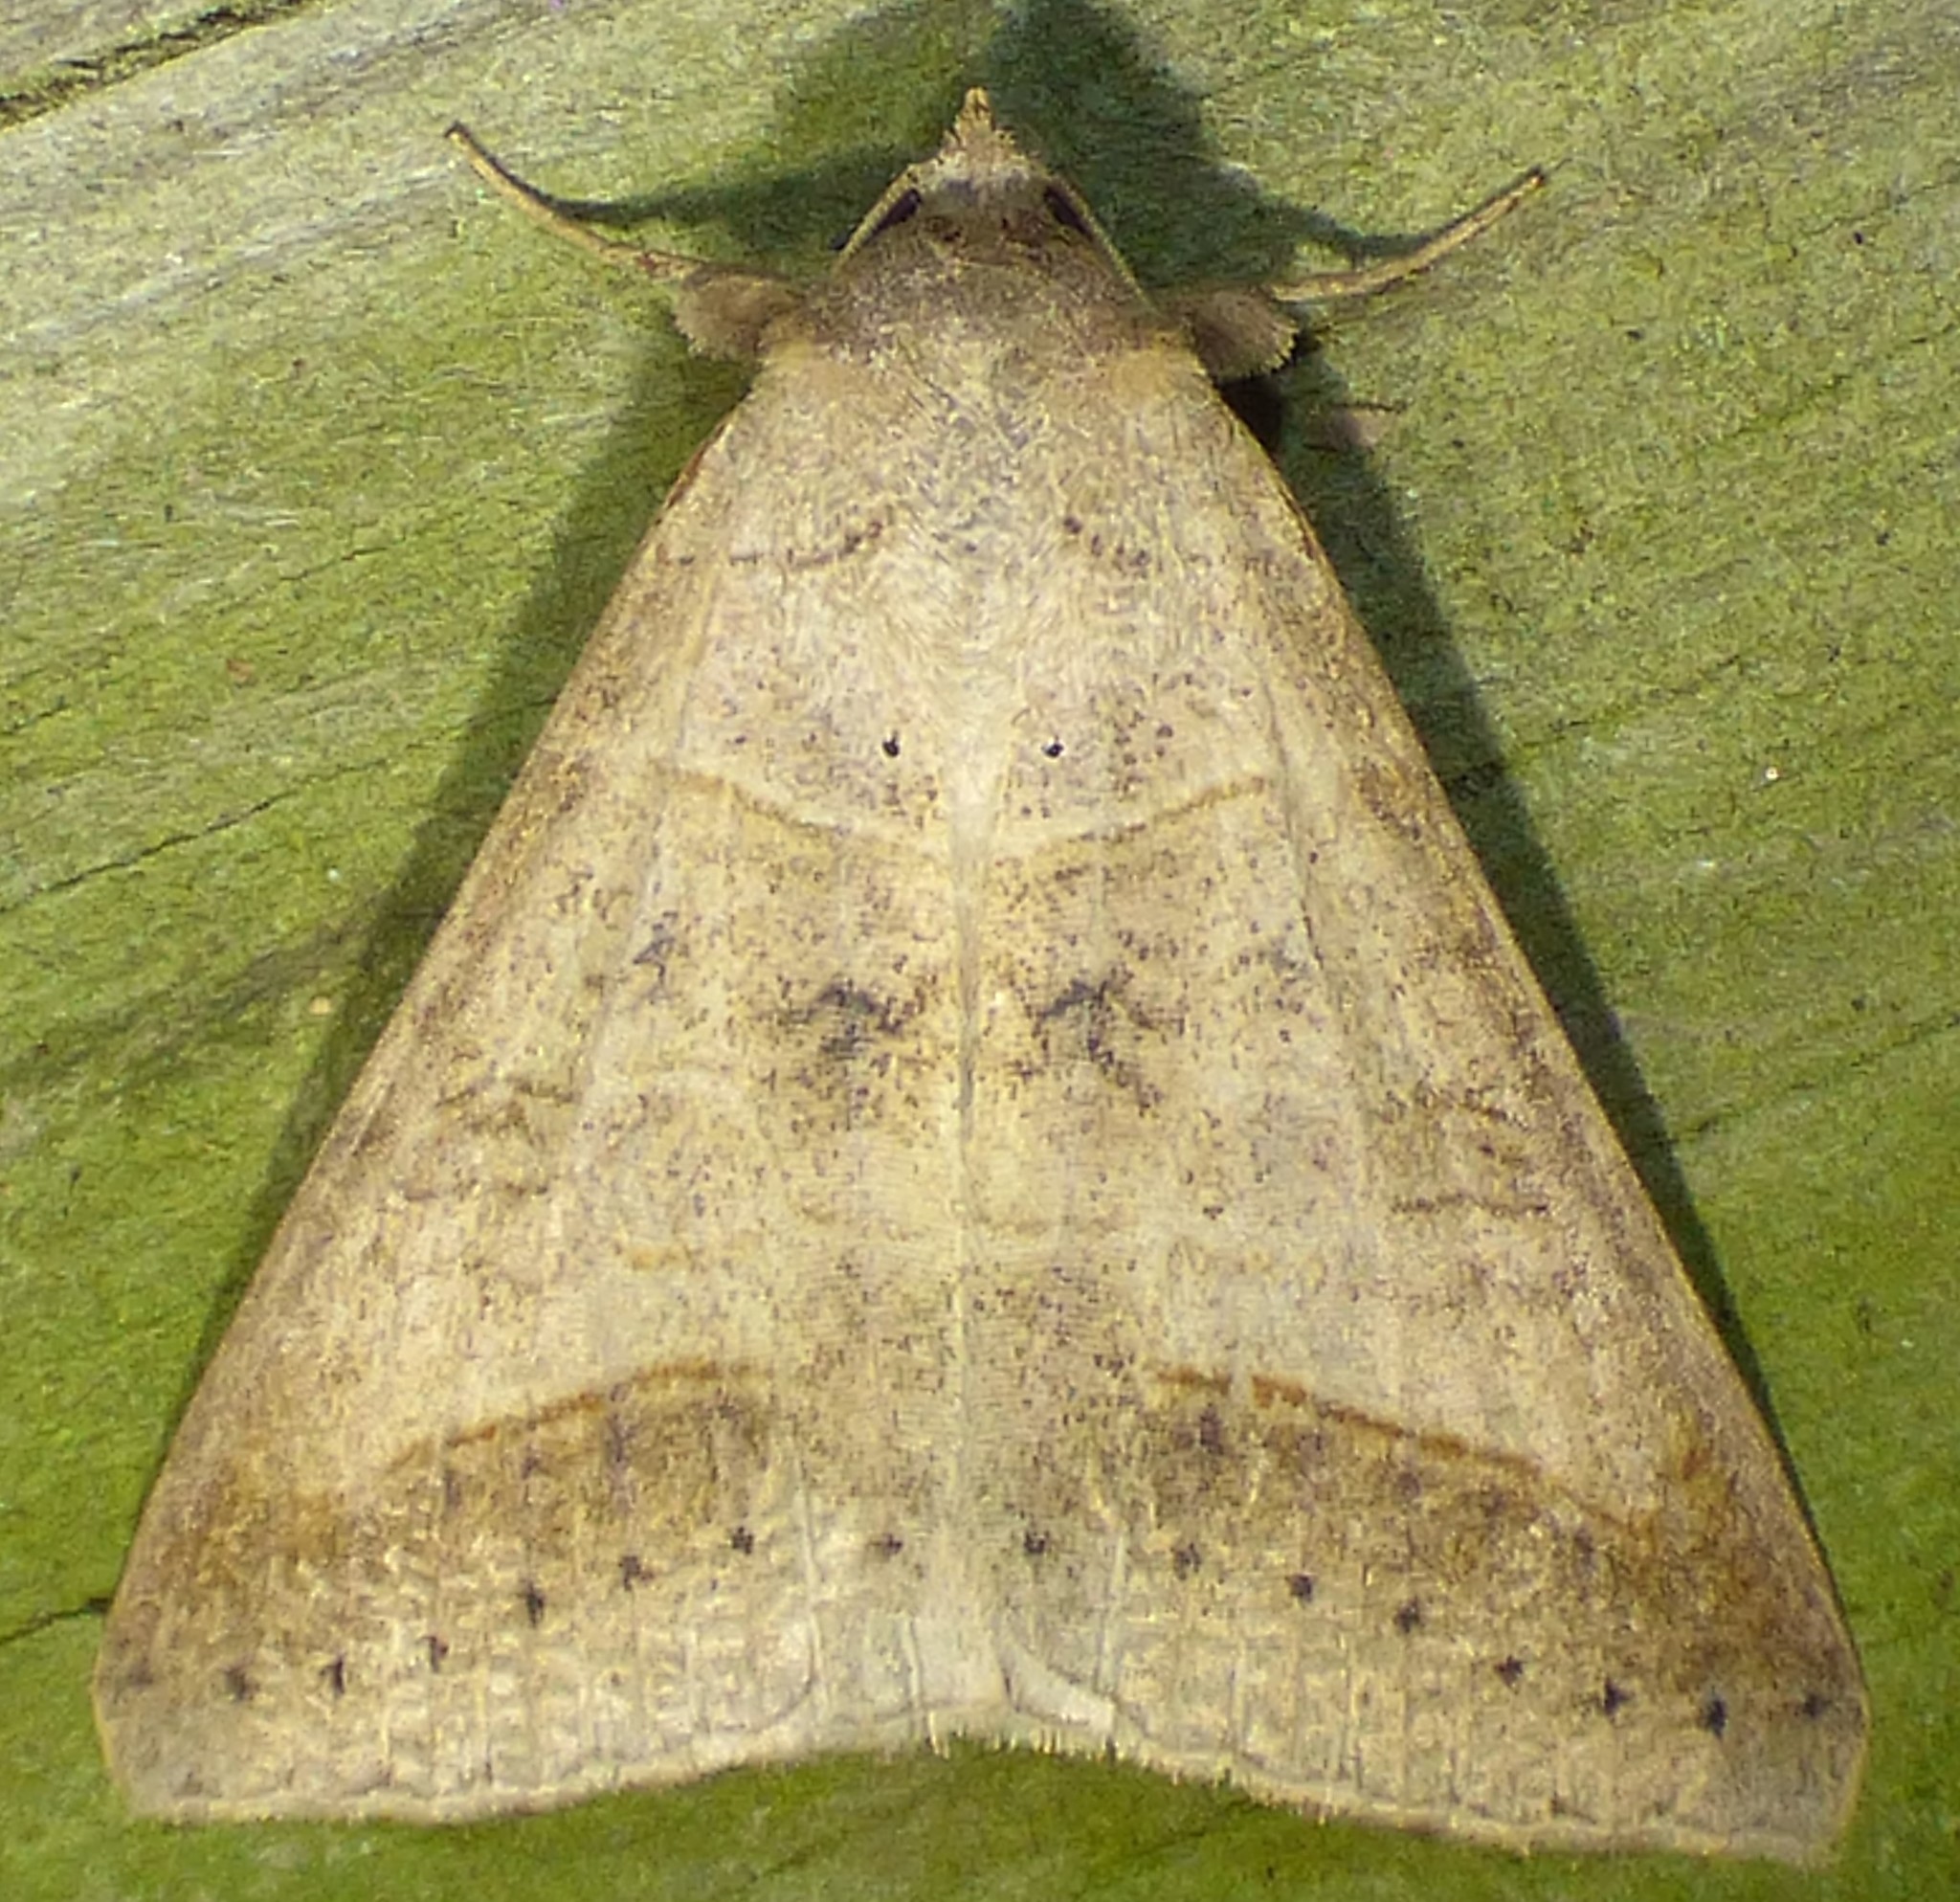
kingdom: Animalia
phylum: Arthropoda
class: Insecta
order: Lepidoptera
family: Erebidae
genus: Mocis
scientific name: Mocis marcida
